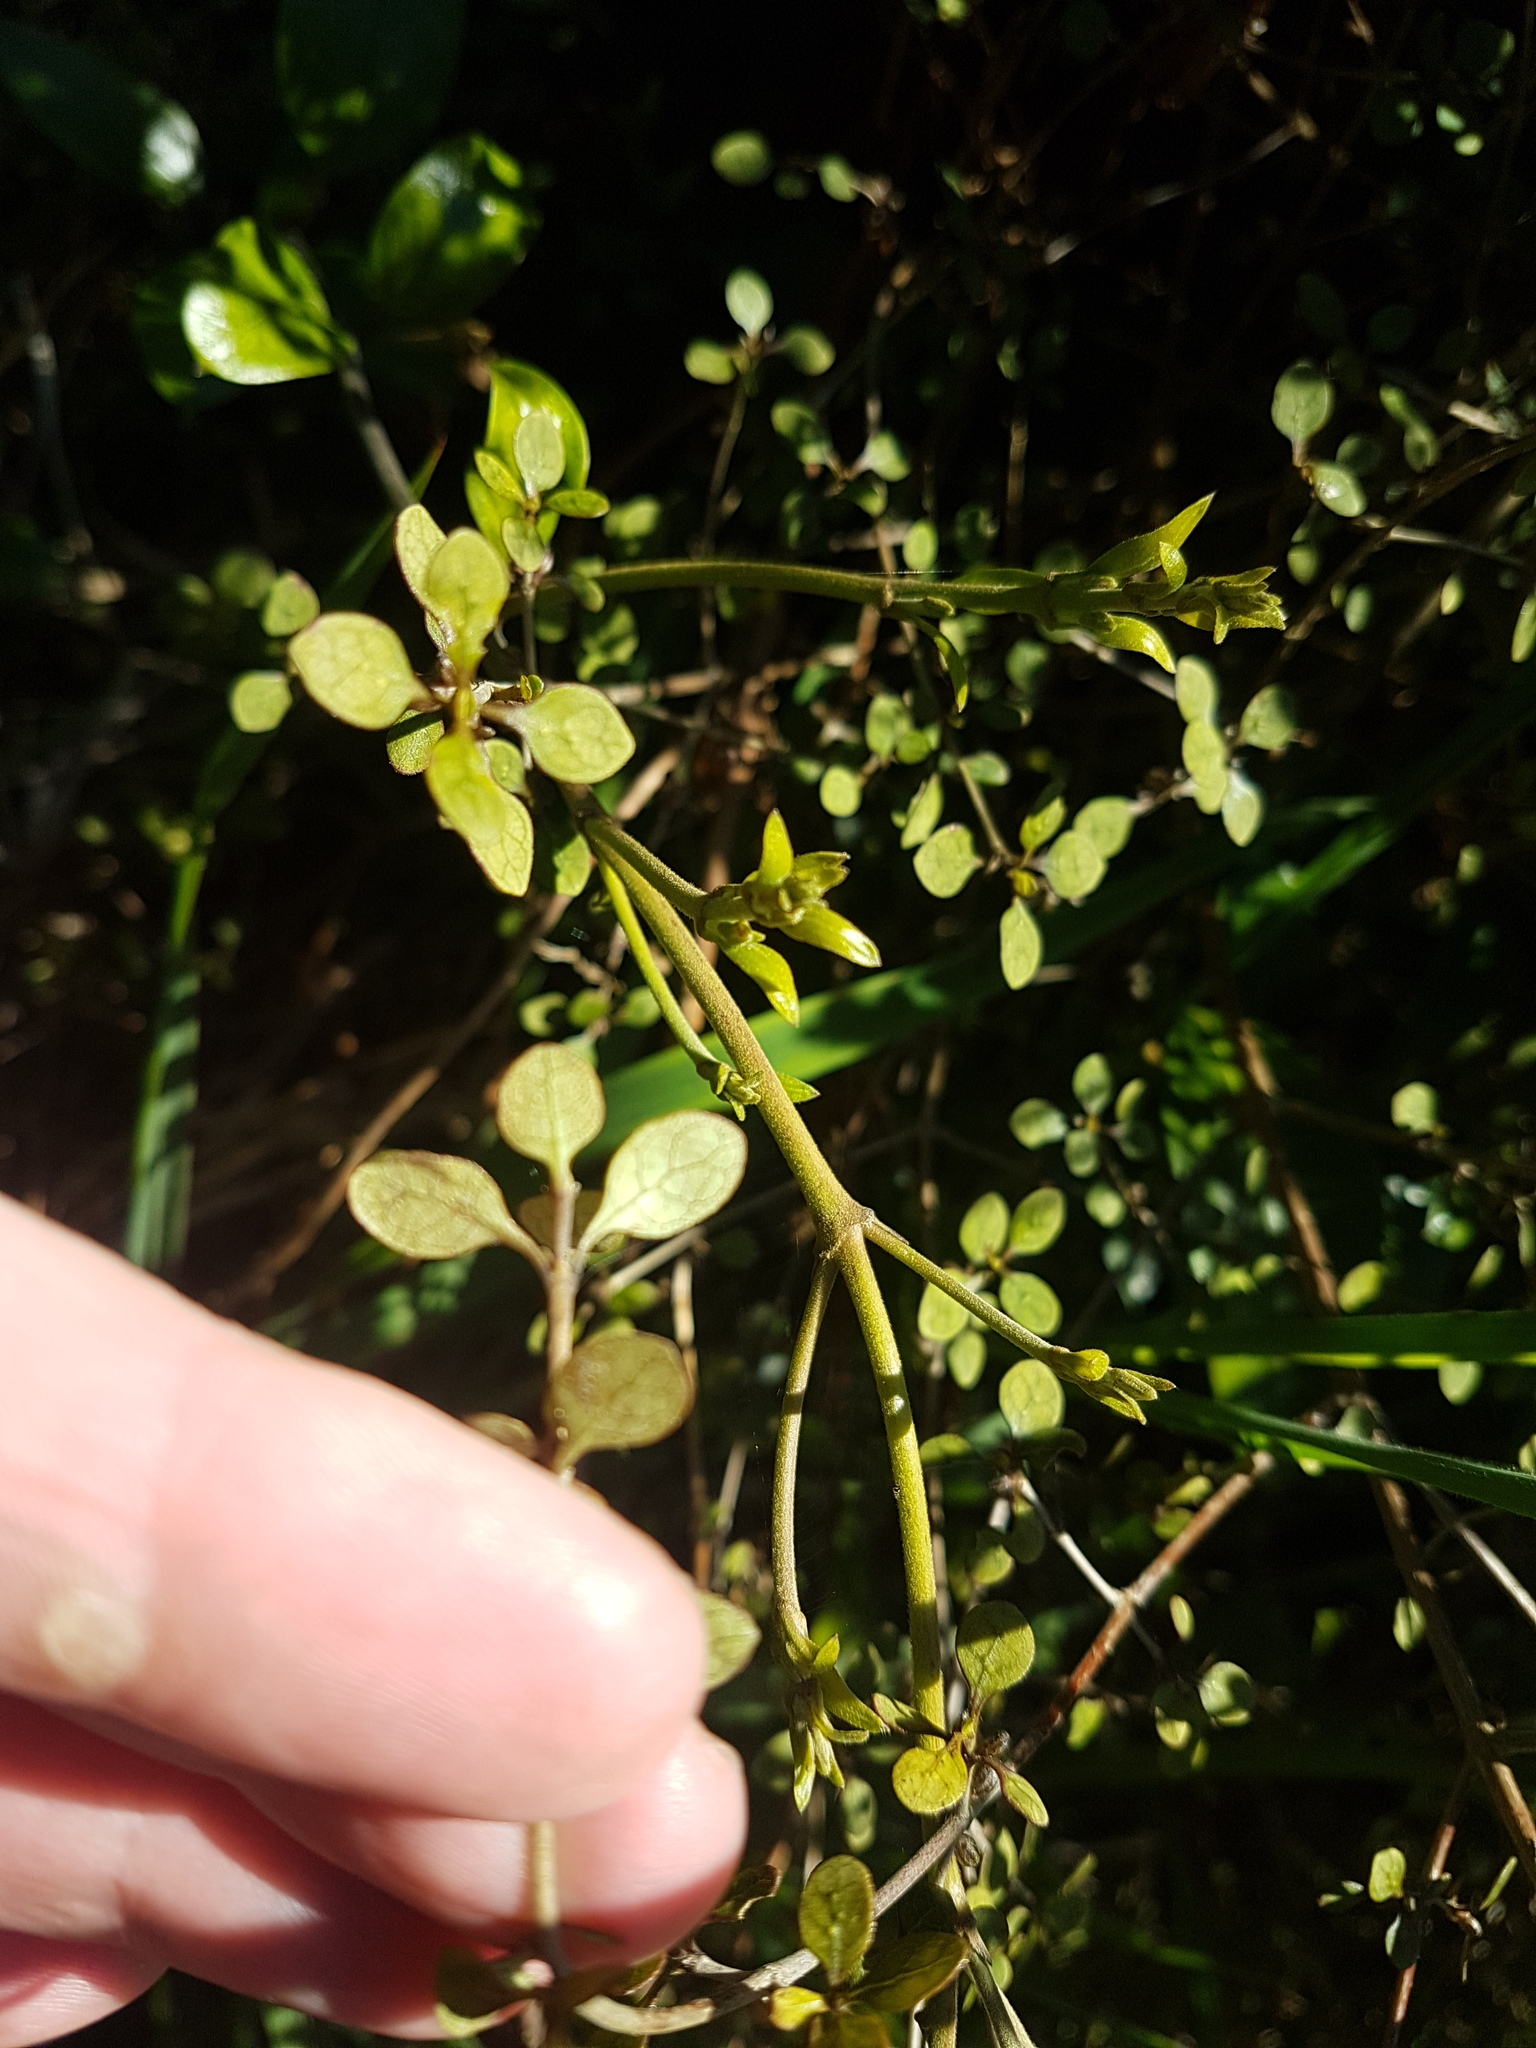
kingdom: Plantae
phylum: Tracheophyta
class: Magnoliopsida
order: Gentianales
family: Rubiaceae
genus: Coprosma
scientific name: Coprosma tenuicaulis
